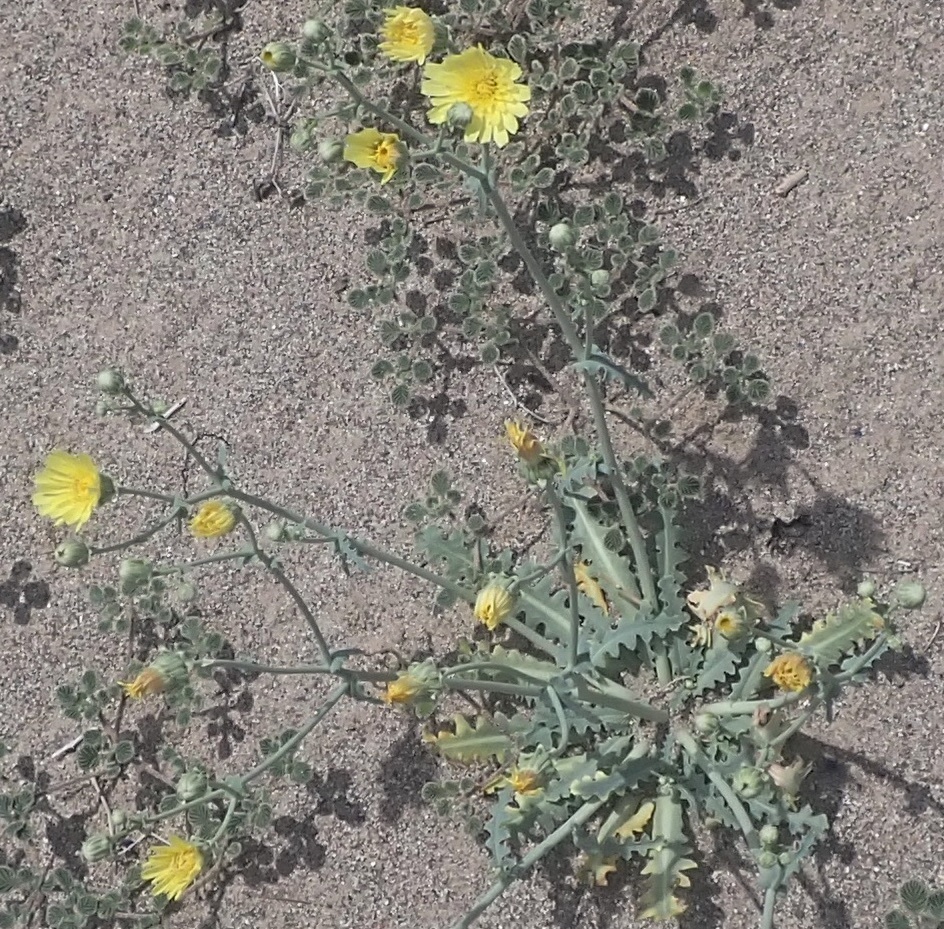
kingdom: Plantae
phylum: Tracheophyta
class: Magnoliopsida
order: Asterales
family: Asteraceae
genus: Malacothrix
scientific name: Malacothrix sonchoides
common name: Sow-thistle desert-dandelion
